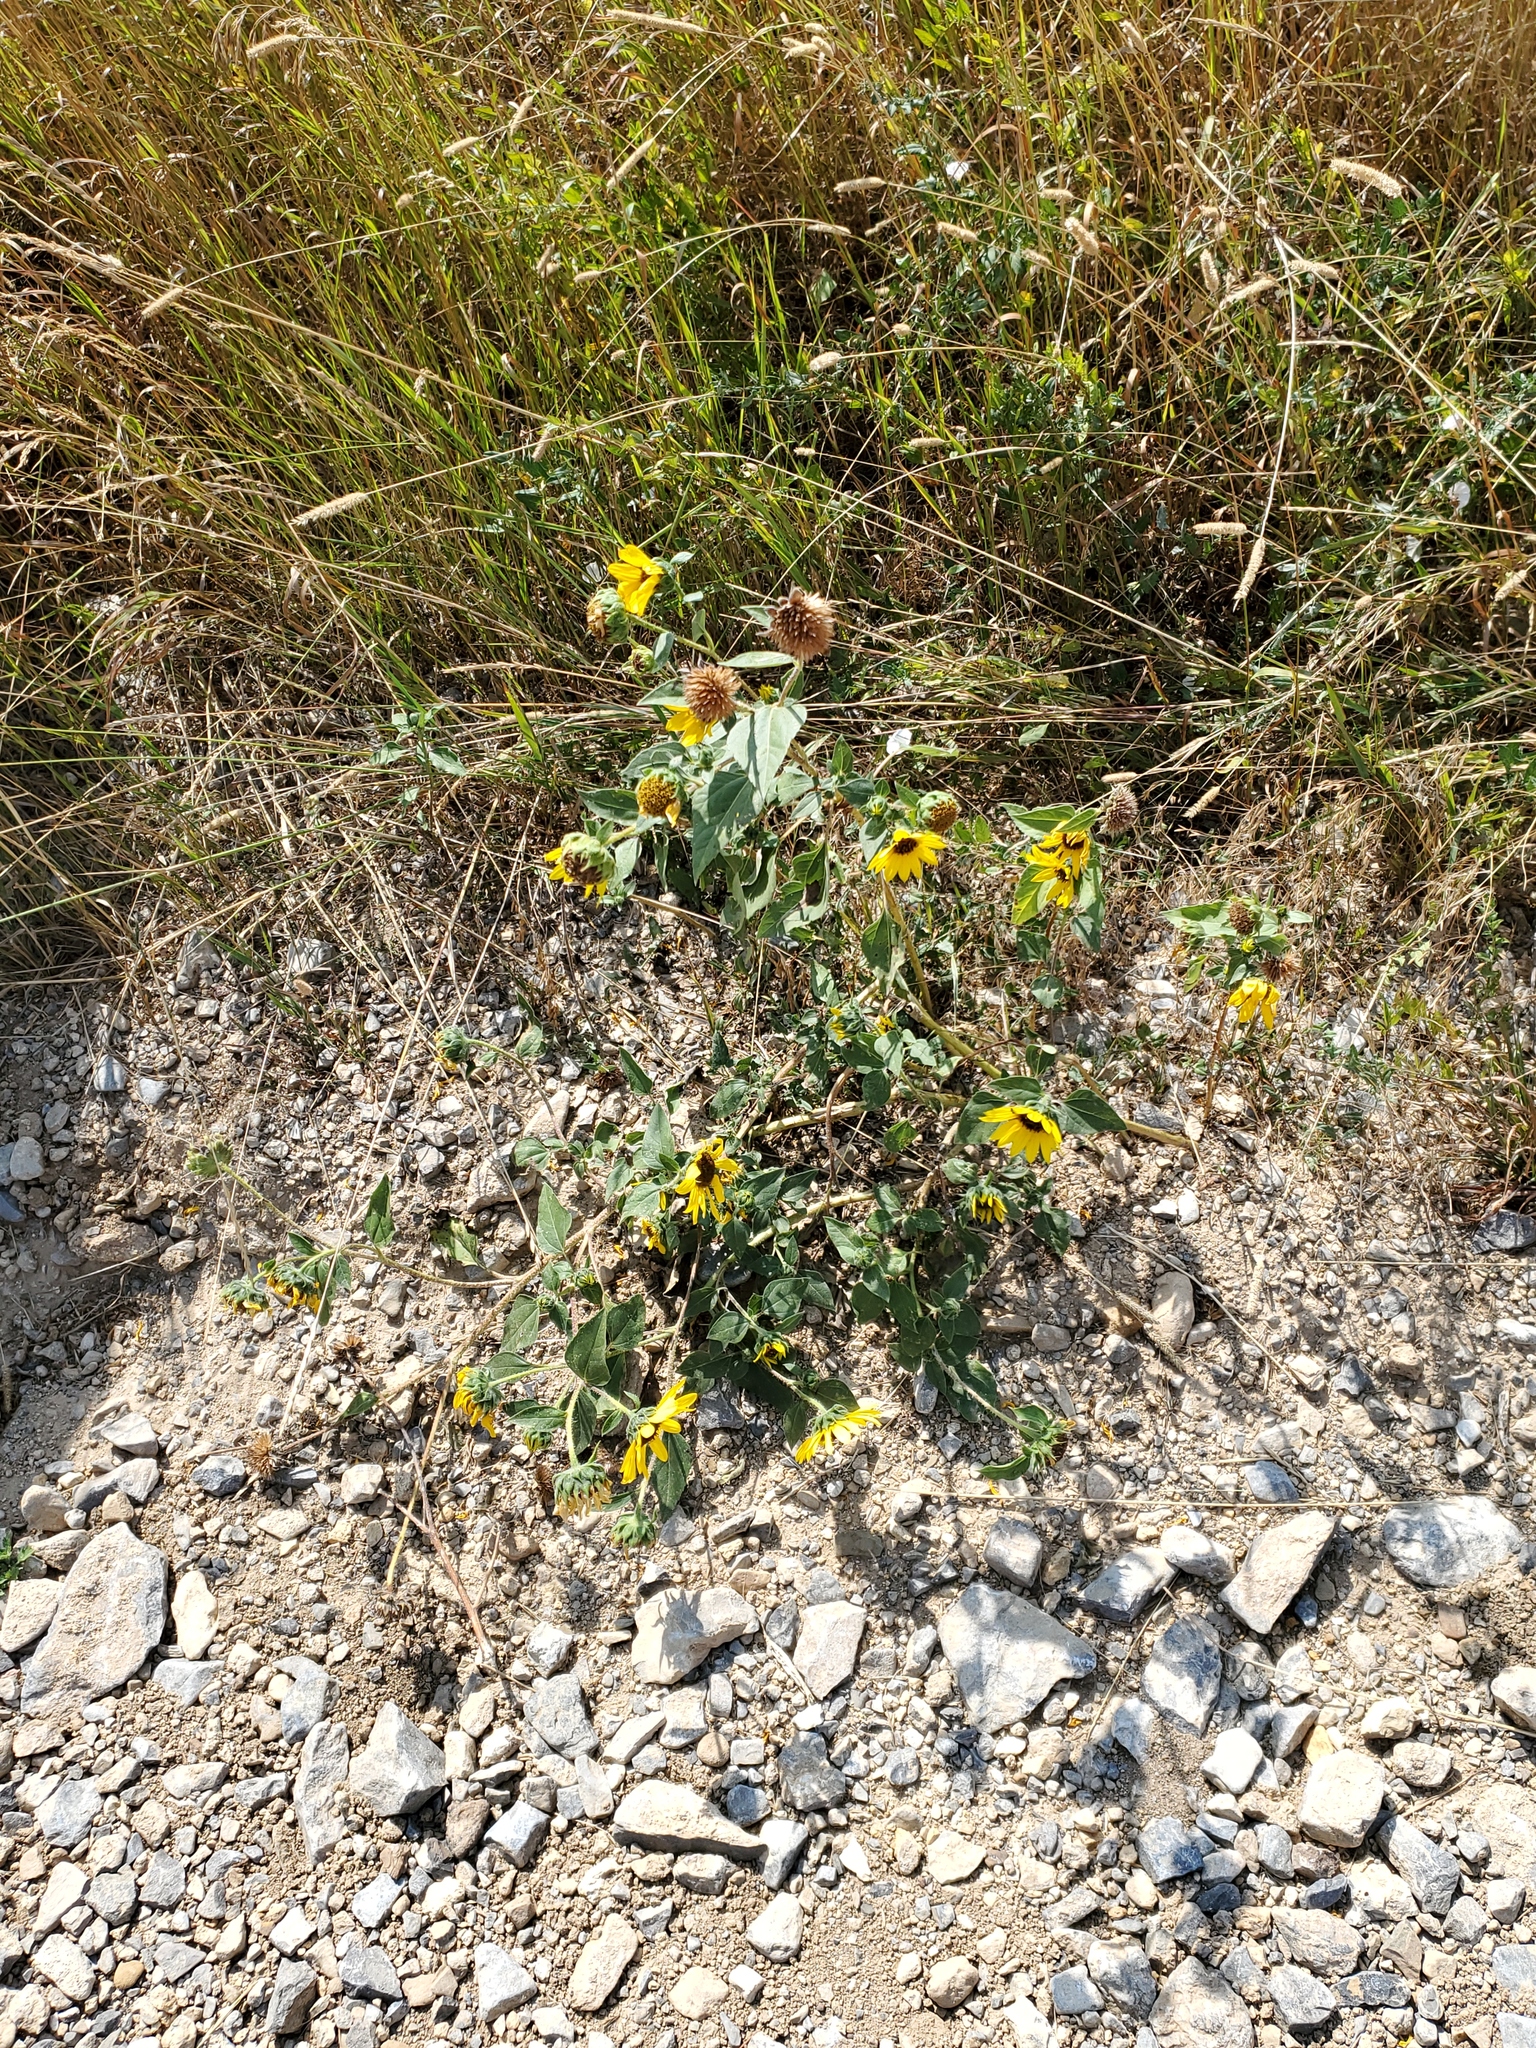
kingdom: Plantae
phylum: Tracheophyta
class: Magnoliopsida
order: Asterales
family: Asteraceae
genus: Helianthus
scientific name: Helianthus annuus
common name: Sunflower
